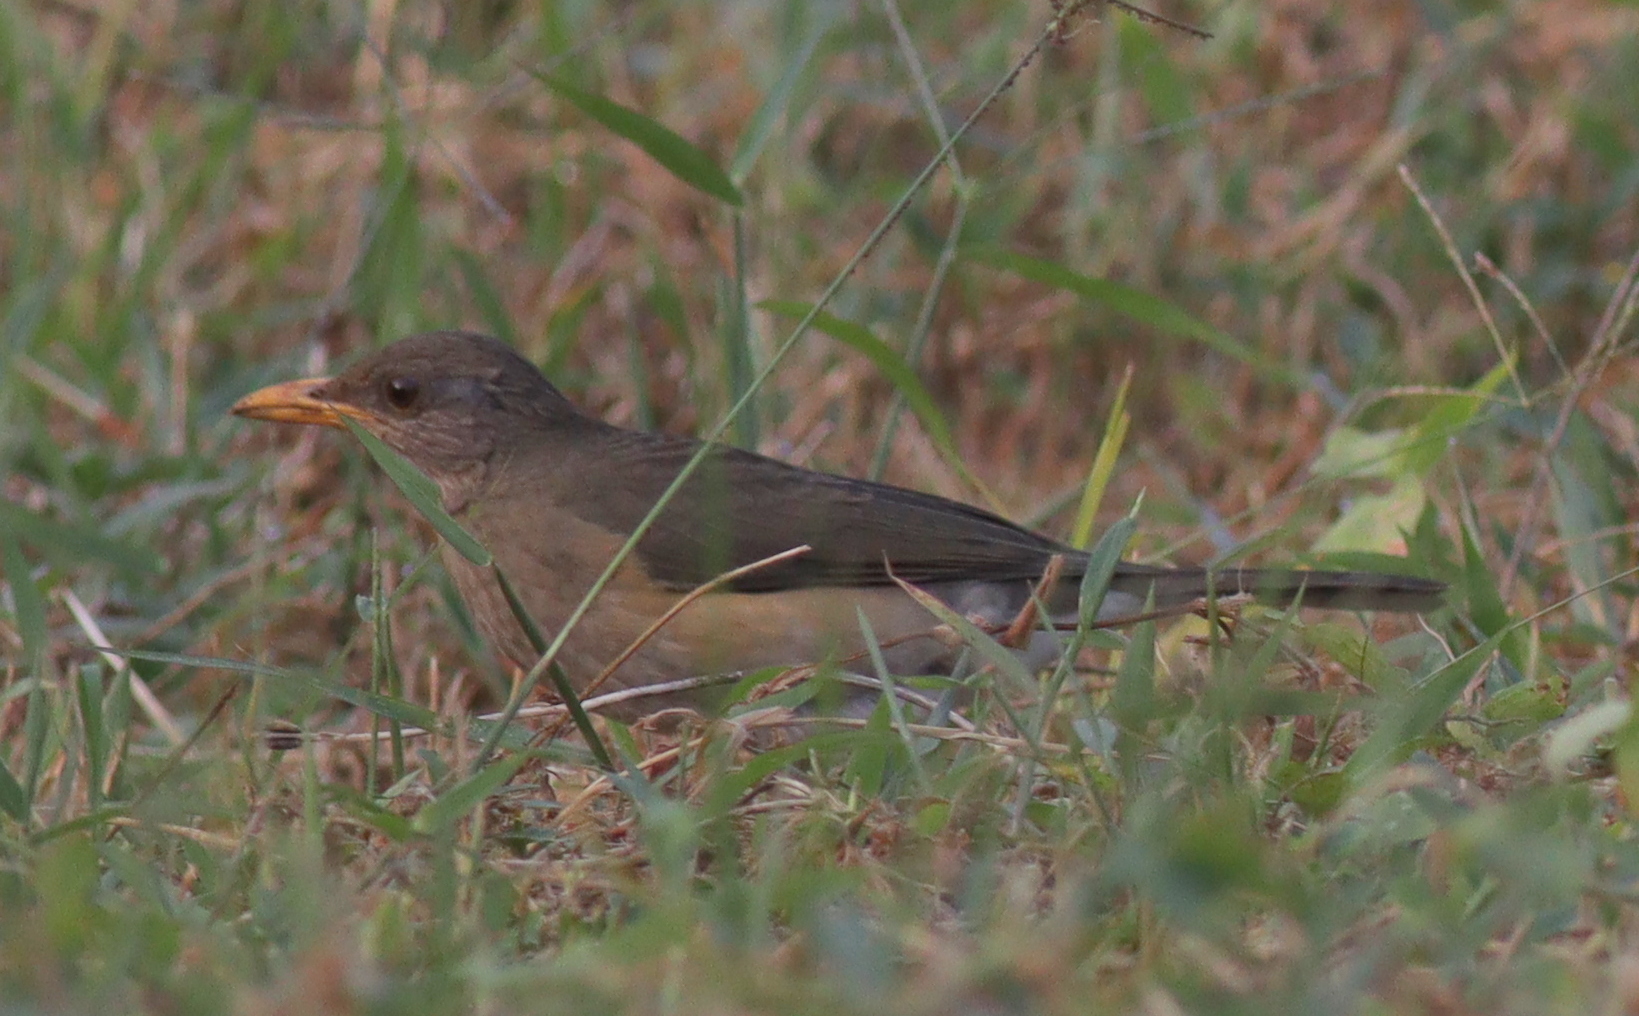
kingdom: Animalia
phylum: Chordata
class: Aves
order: Passeriformes
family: Turdidae
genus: Turdus
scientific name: Turdus pelios
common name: African thrush
